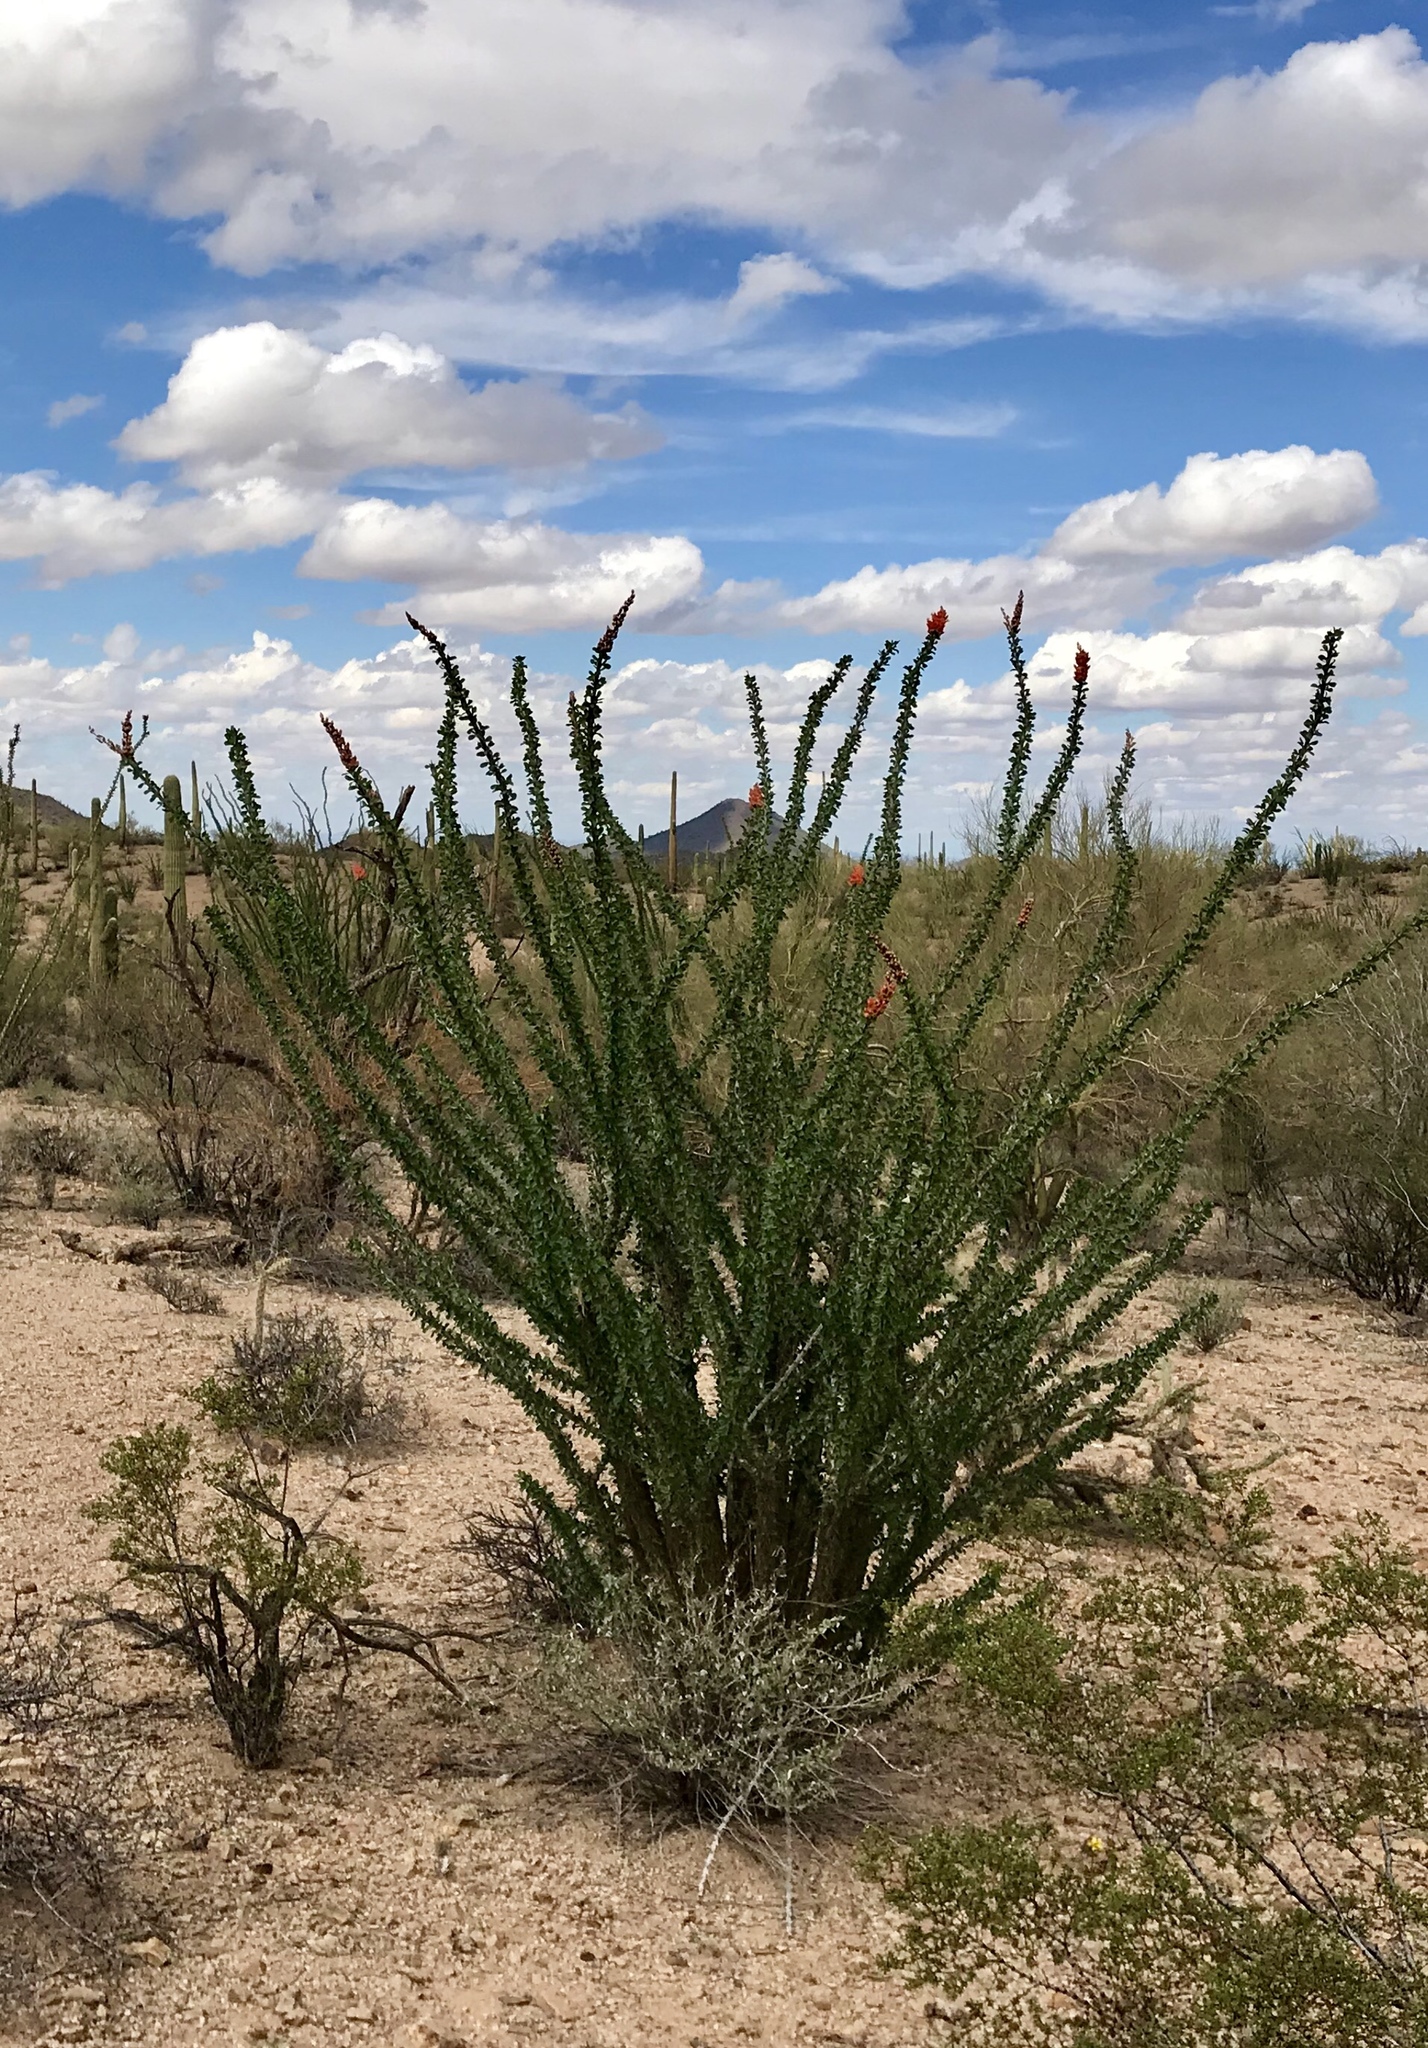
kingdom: Plantae
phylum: Tracheophyta
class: Magnoliopsida
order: Ericales
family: Fouquieriaceae
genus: Fouquieria
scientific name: Fouquieria splendens
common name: Vine-cactus
